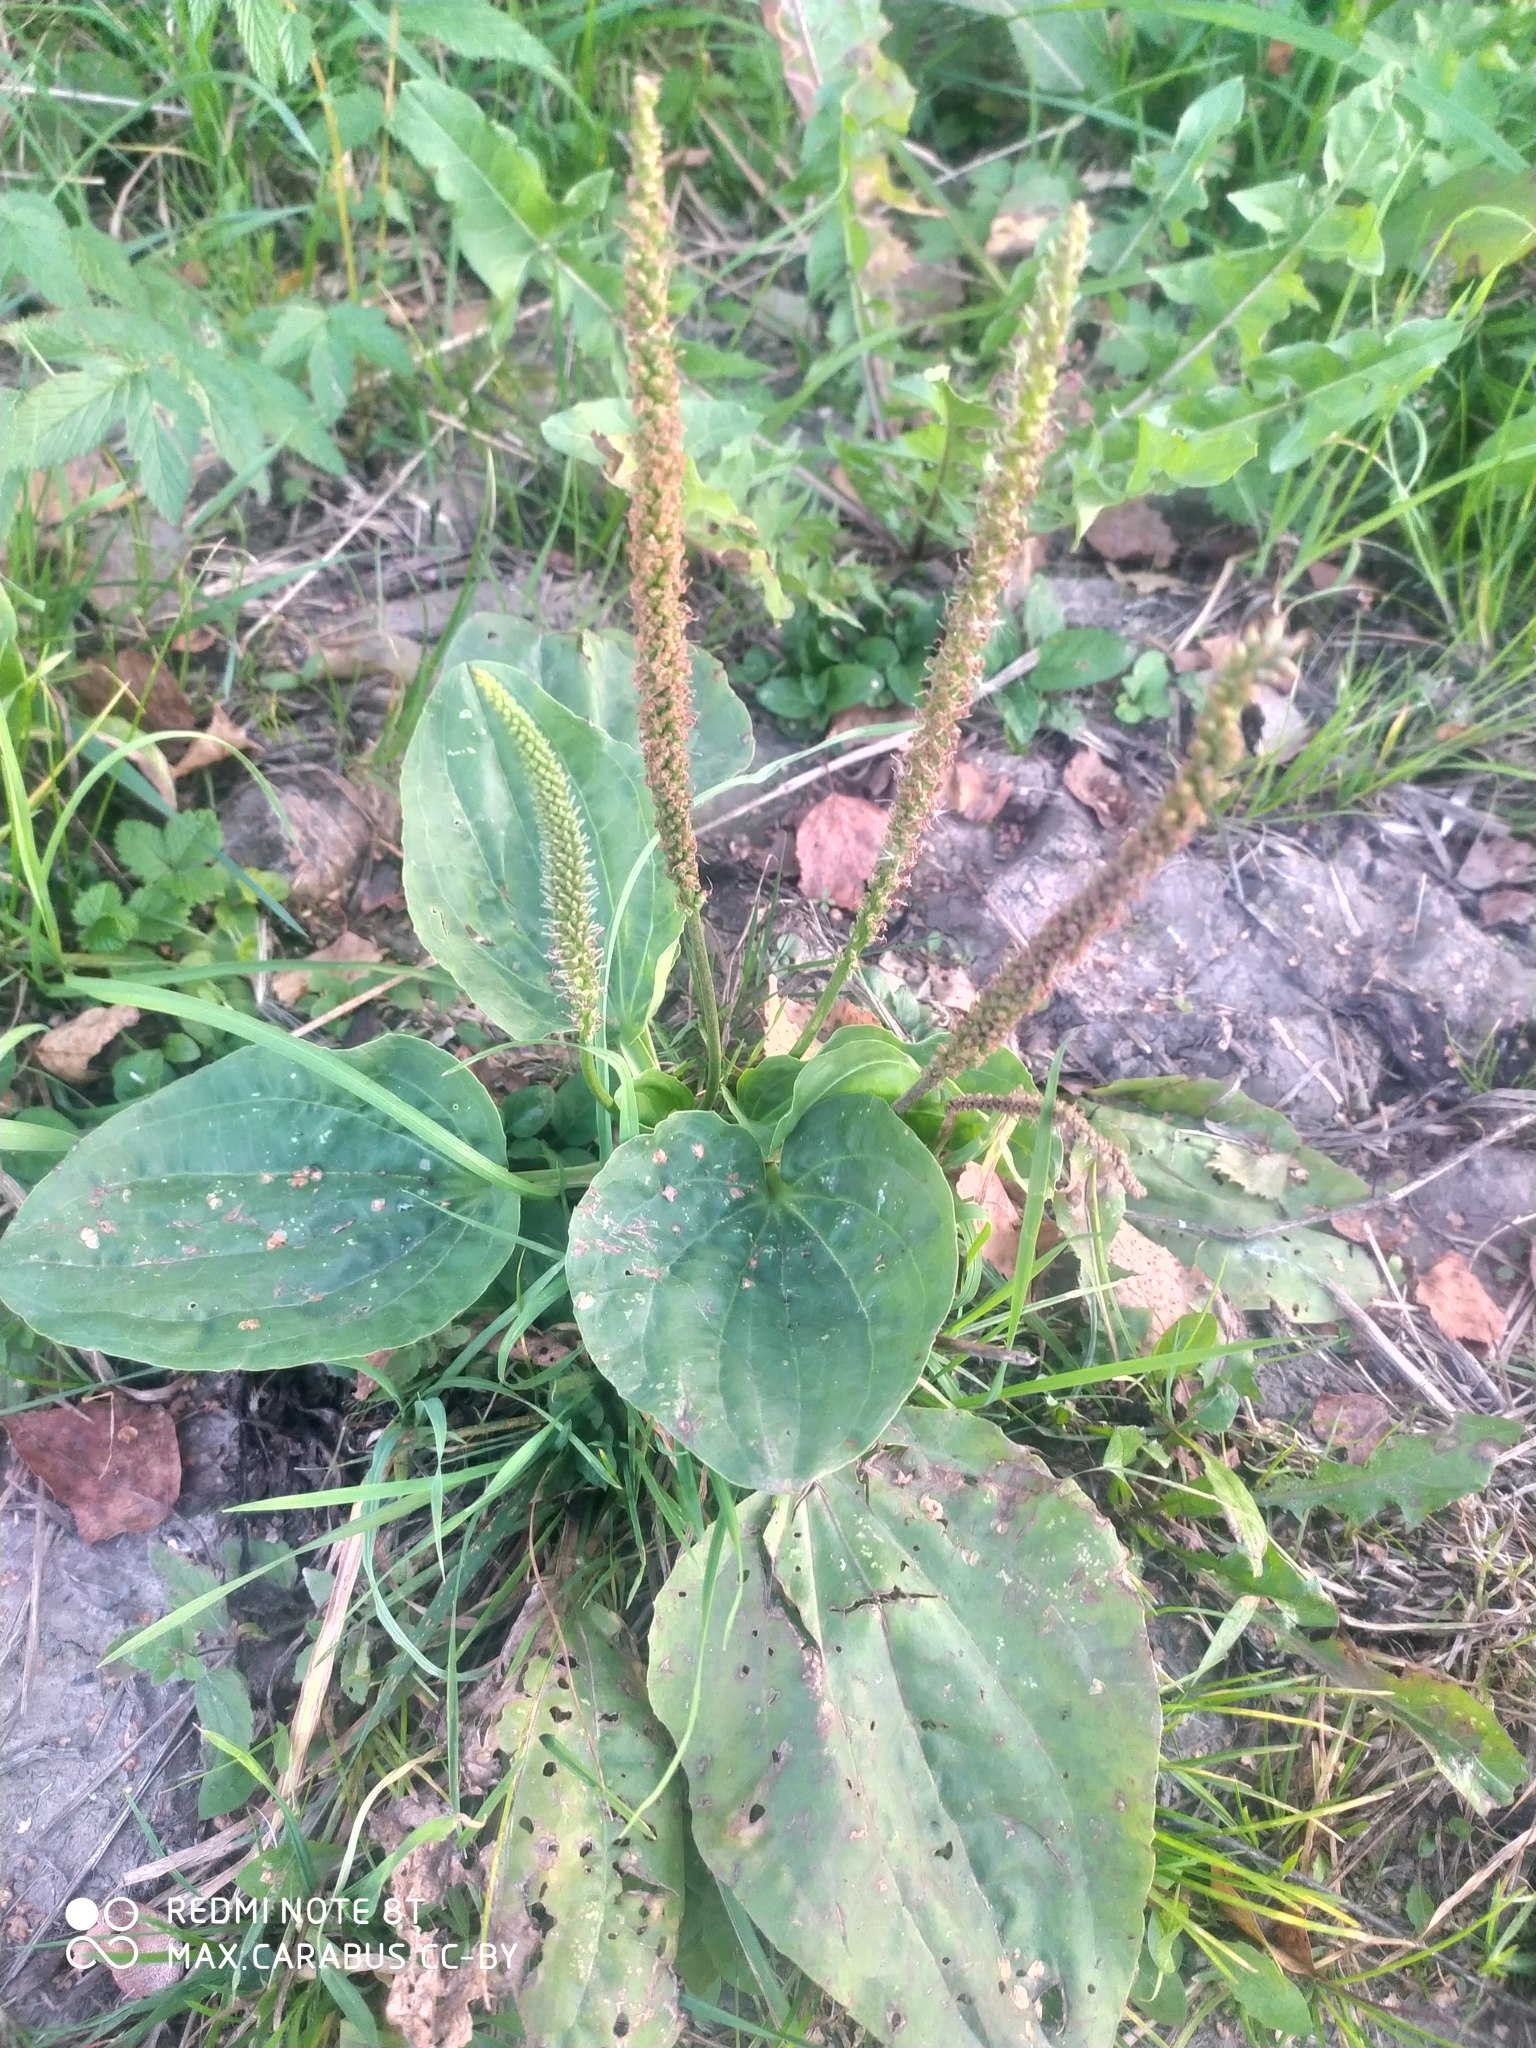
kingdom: Plantae
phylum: Tracheophyta
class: Magnoliopsida
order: Lamiales
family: Plantaginaceae
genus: Plantago
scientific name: Plantago major
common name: Common plantain
